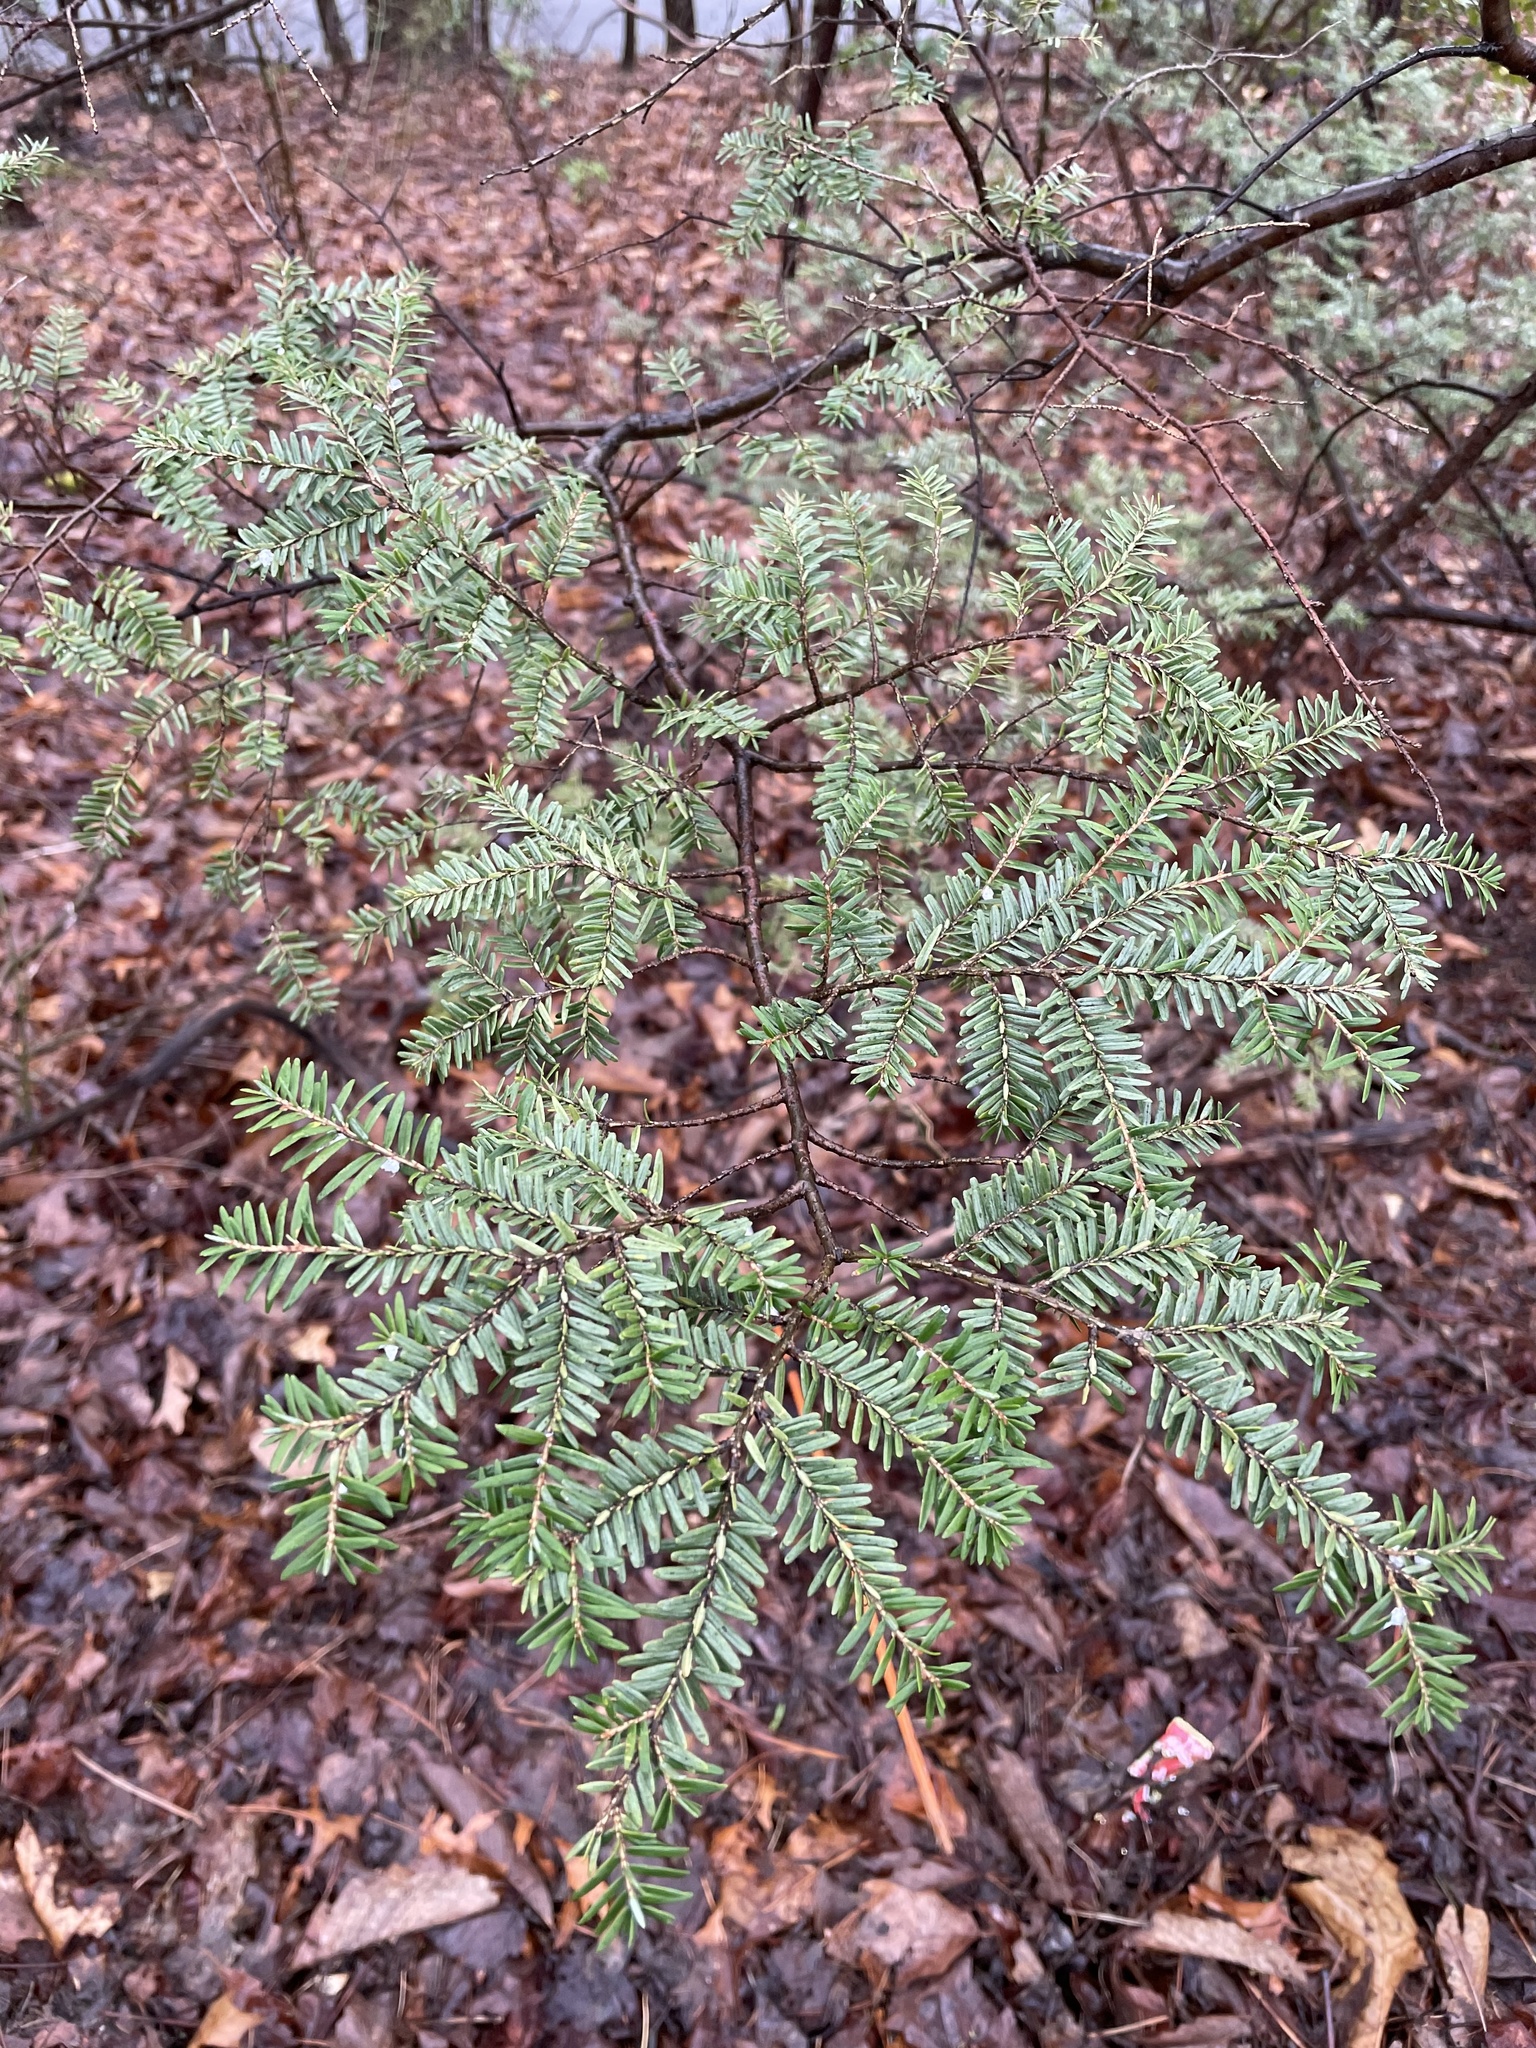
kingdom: Plantae
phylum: Tracheophyta
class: Pinopsida
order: Pinales
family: Pinaceae
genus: Tsuga
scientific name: Tsuga canadensis
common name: Eastern hemlock
